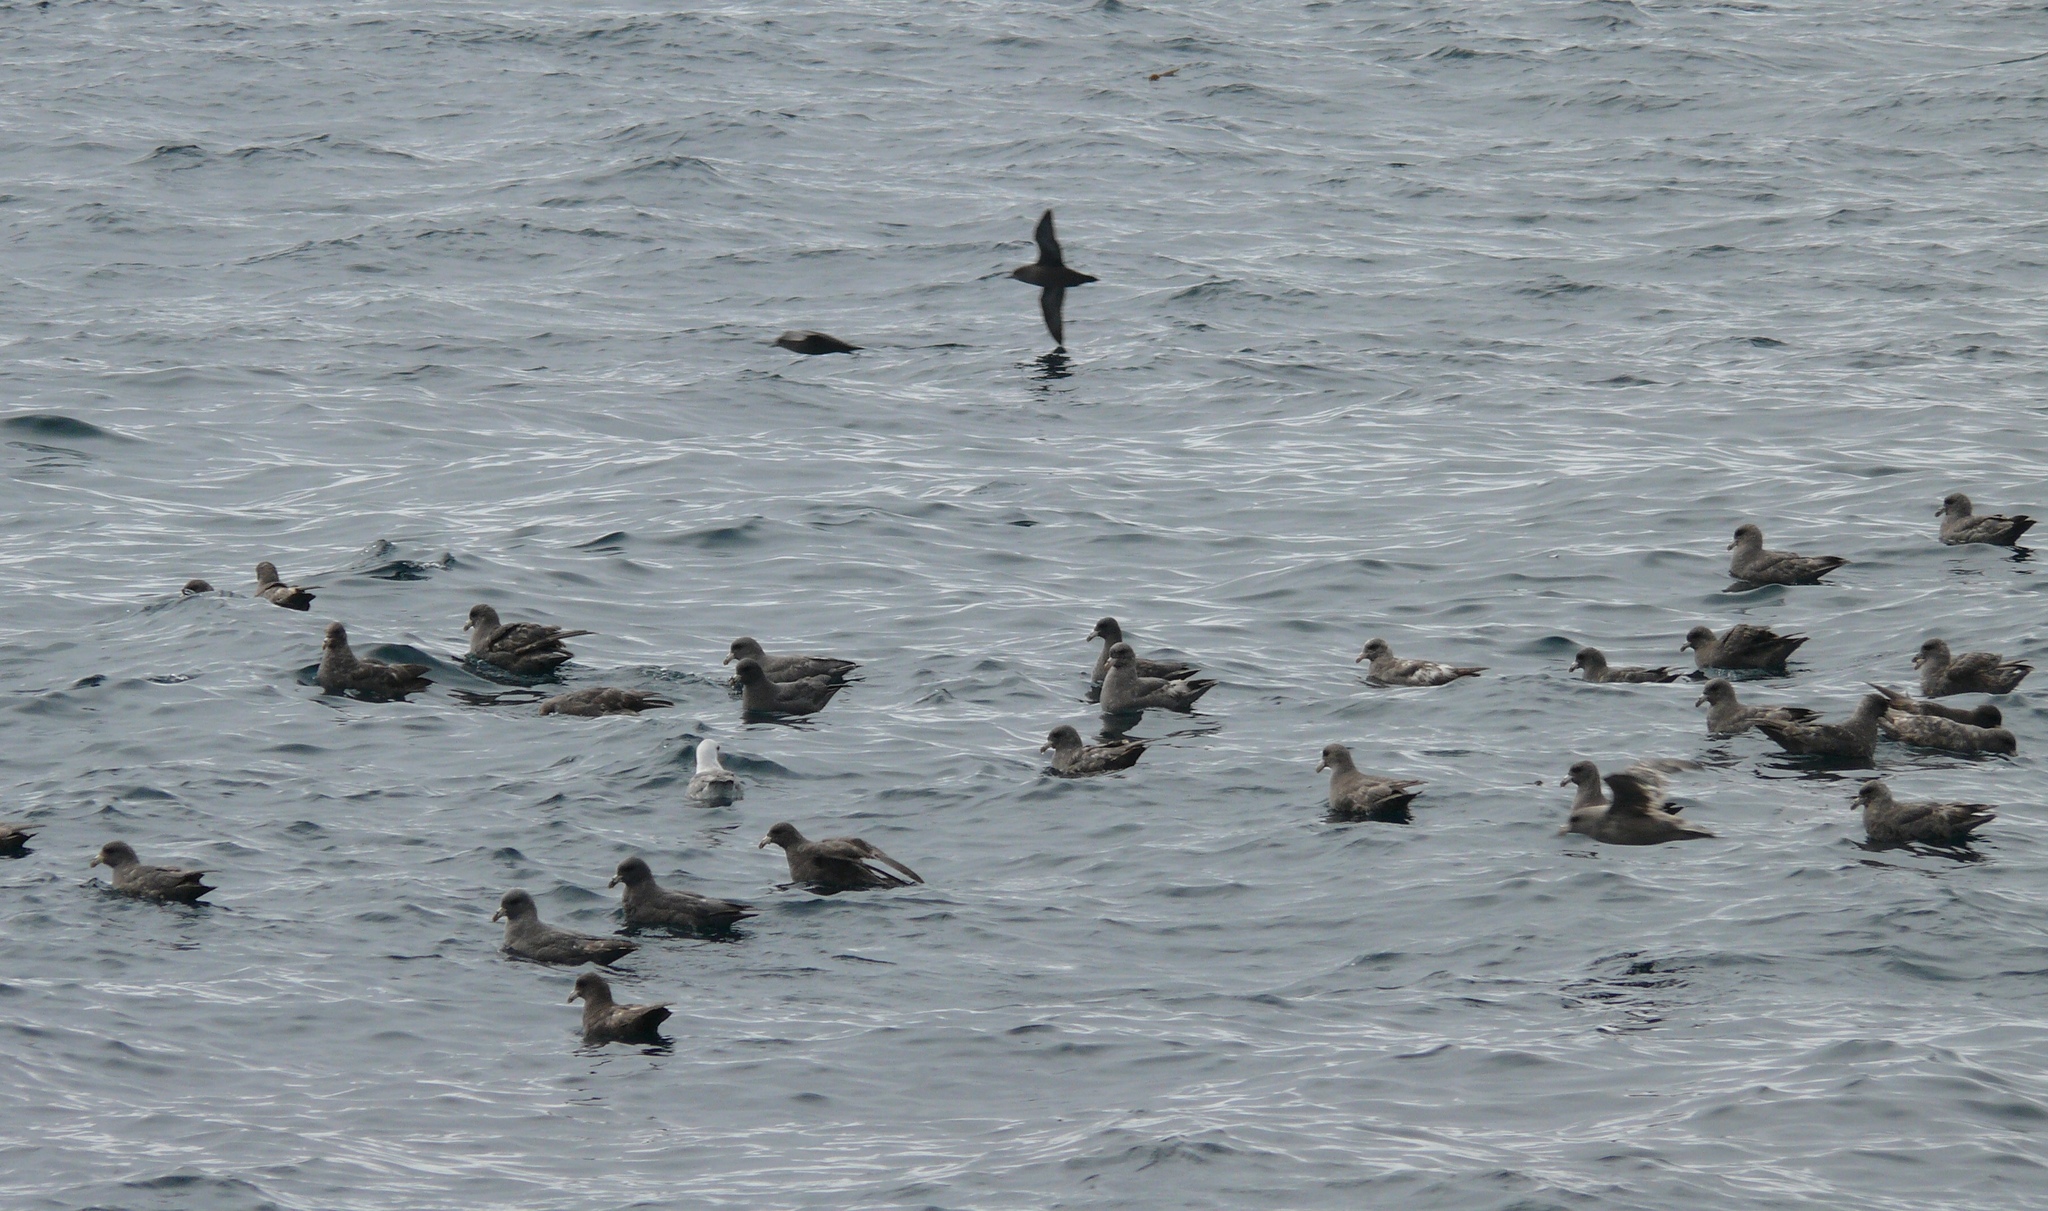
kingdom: Animalia
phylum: Chordata
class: Aves
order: Procellariiformes
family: Procellariidae
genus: Fulmarus
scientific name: Fulmarus glacialis
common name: Northern fulmar
